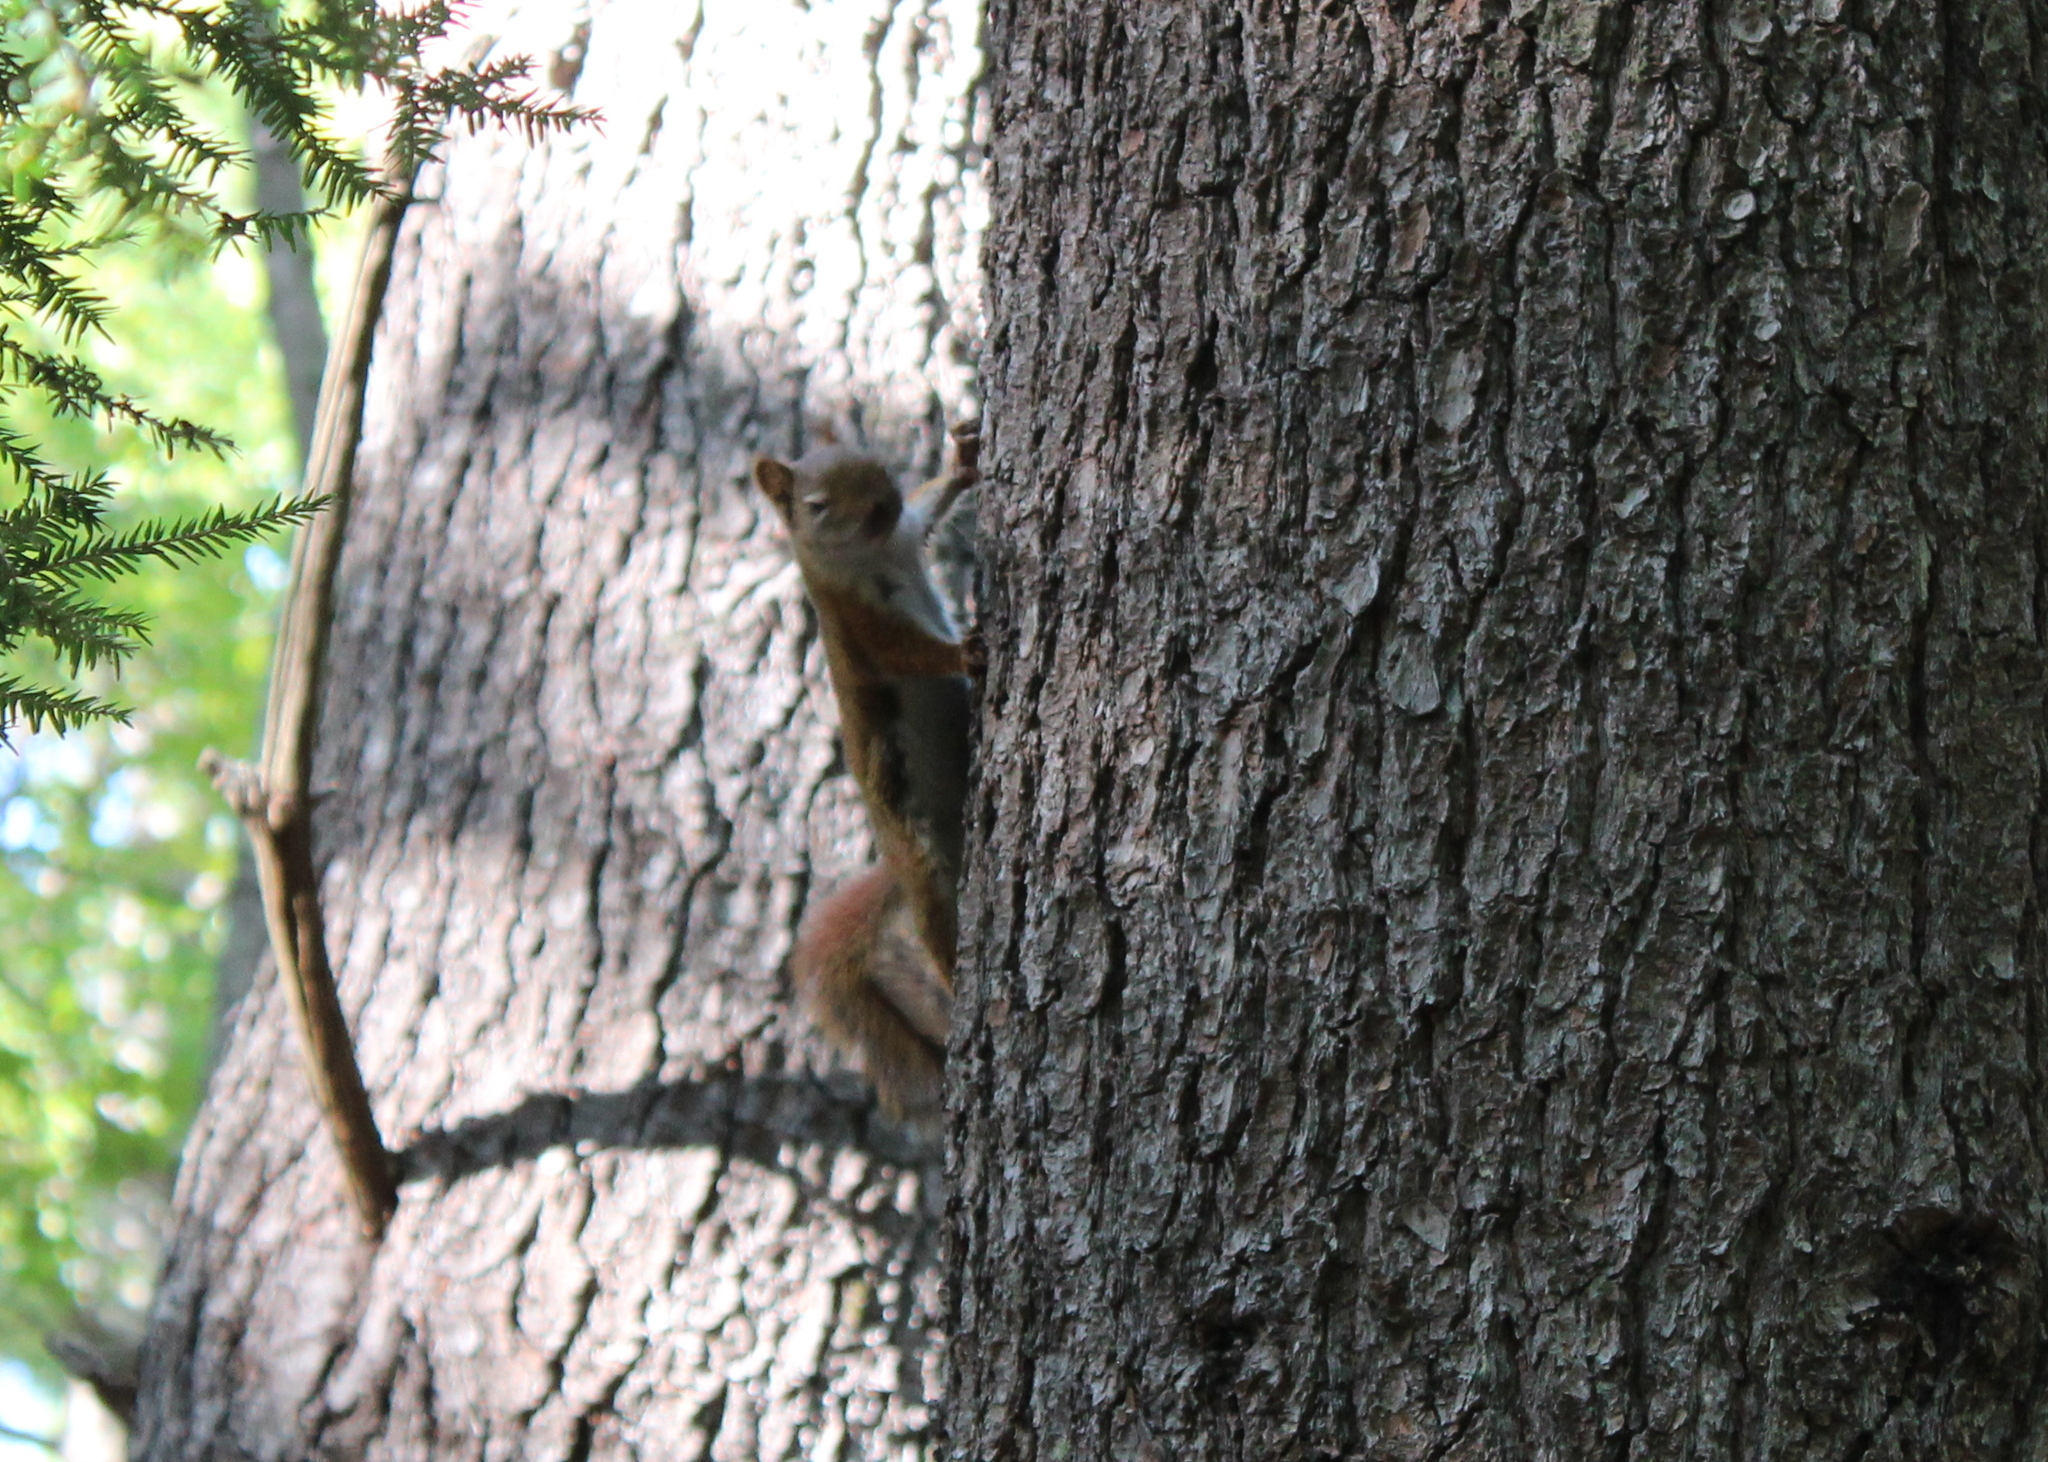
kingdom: Animalia
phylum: Chordata
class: Mammalia
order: Rodentia
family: Sciuridae
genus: Tamiasciurus
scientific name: Tamiasciurus hudsonicus
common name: Red squirrel
